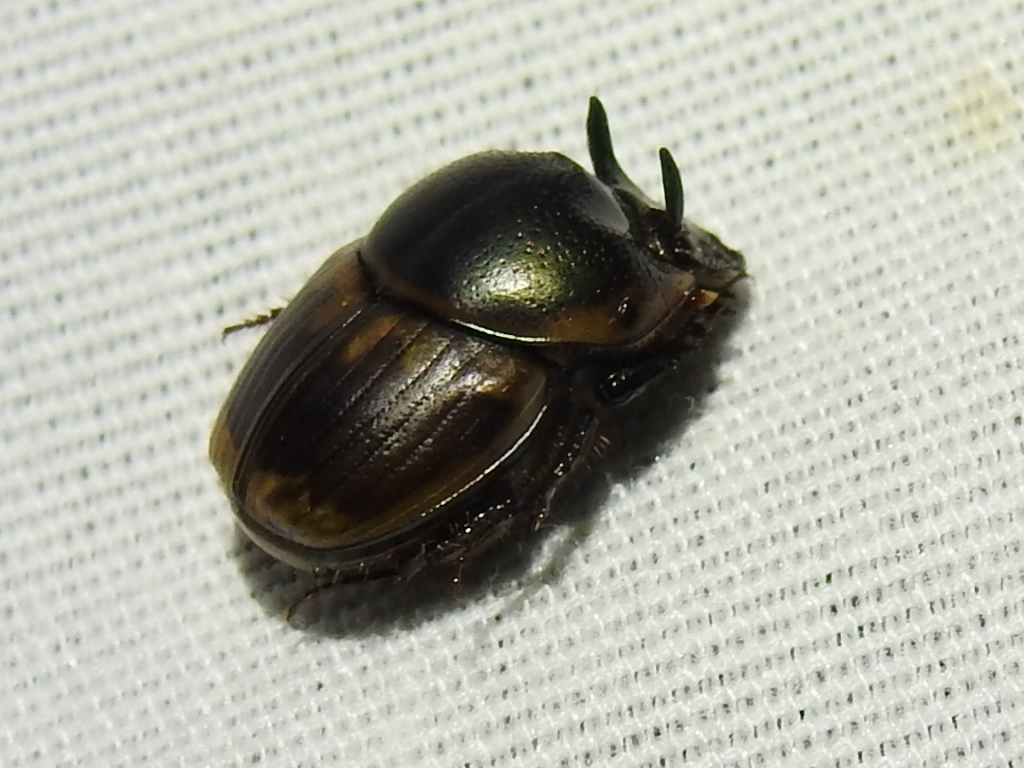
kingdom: Animalia
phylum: Arthropoda
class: Insecta
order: Coleoptera
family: Scarabaeidae
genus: Digitonthophagus
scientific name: Digitonthophagus gazella
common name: Brown dung beetle
